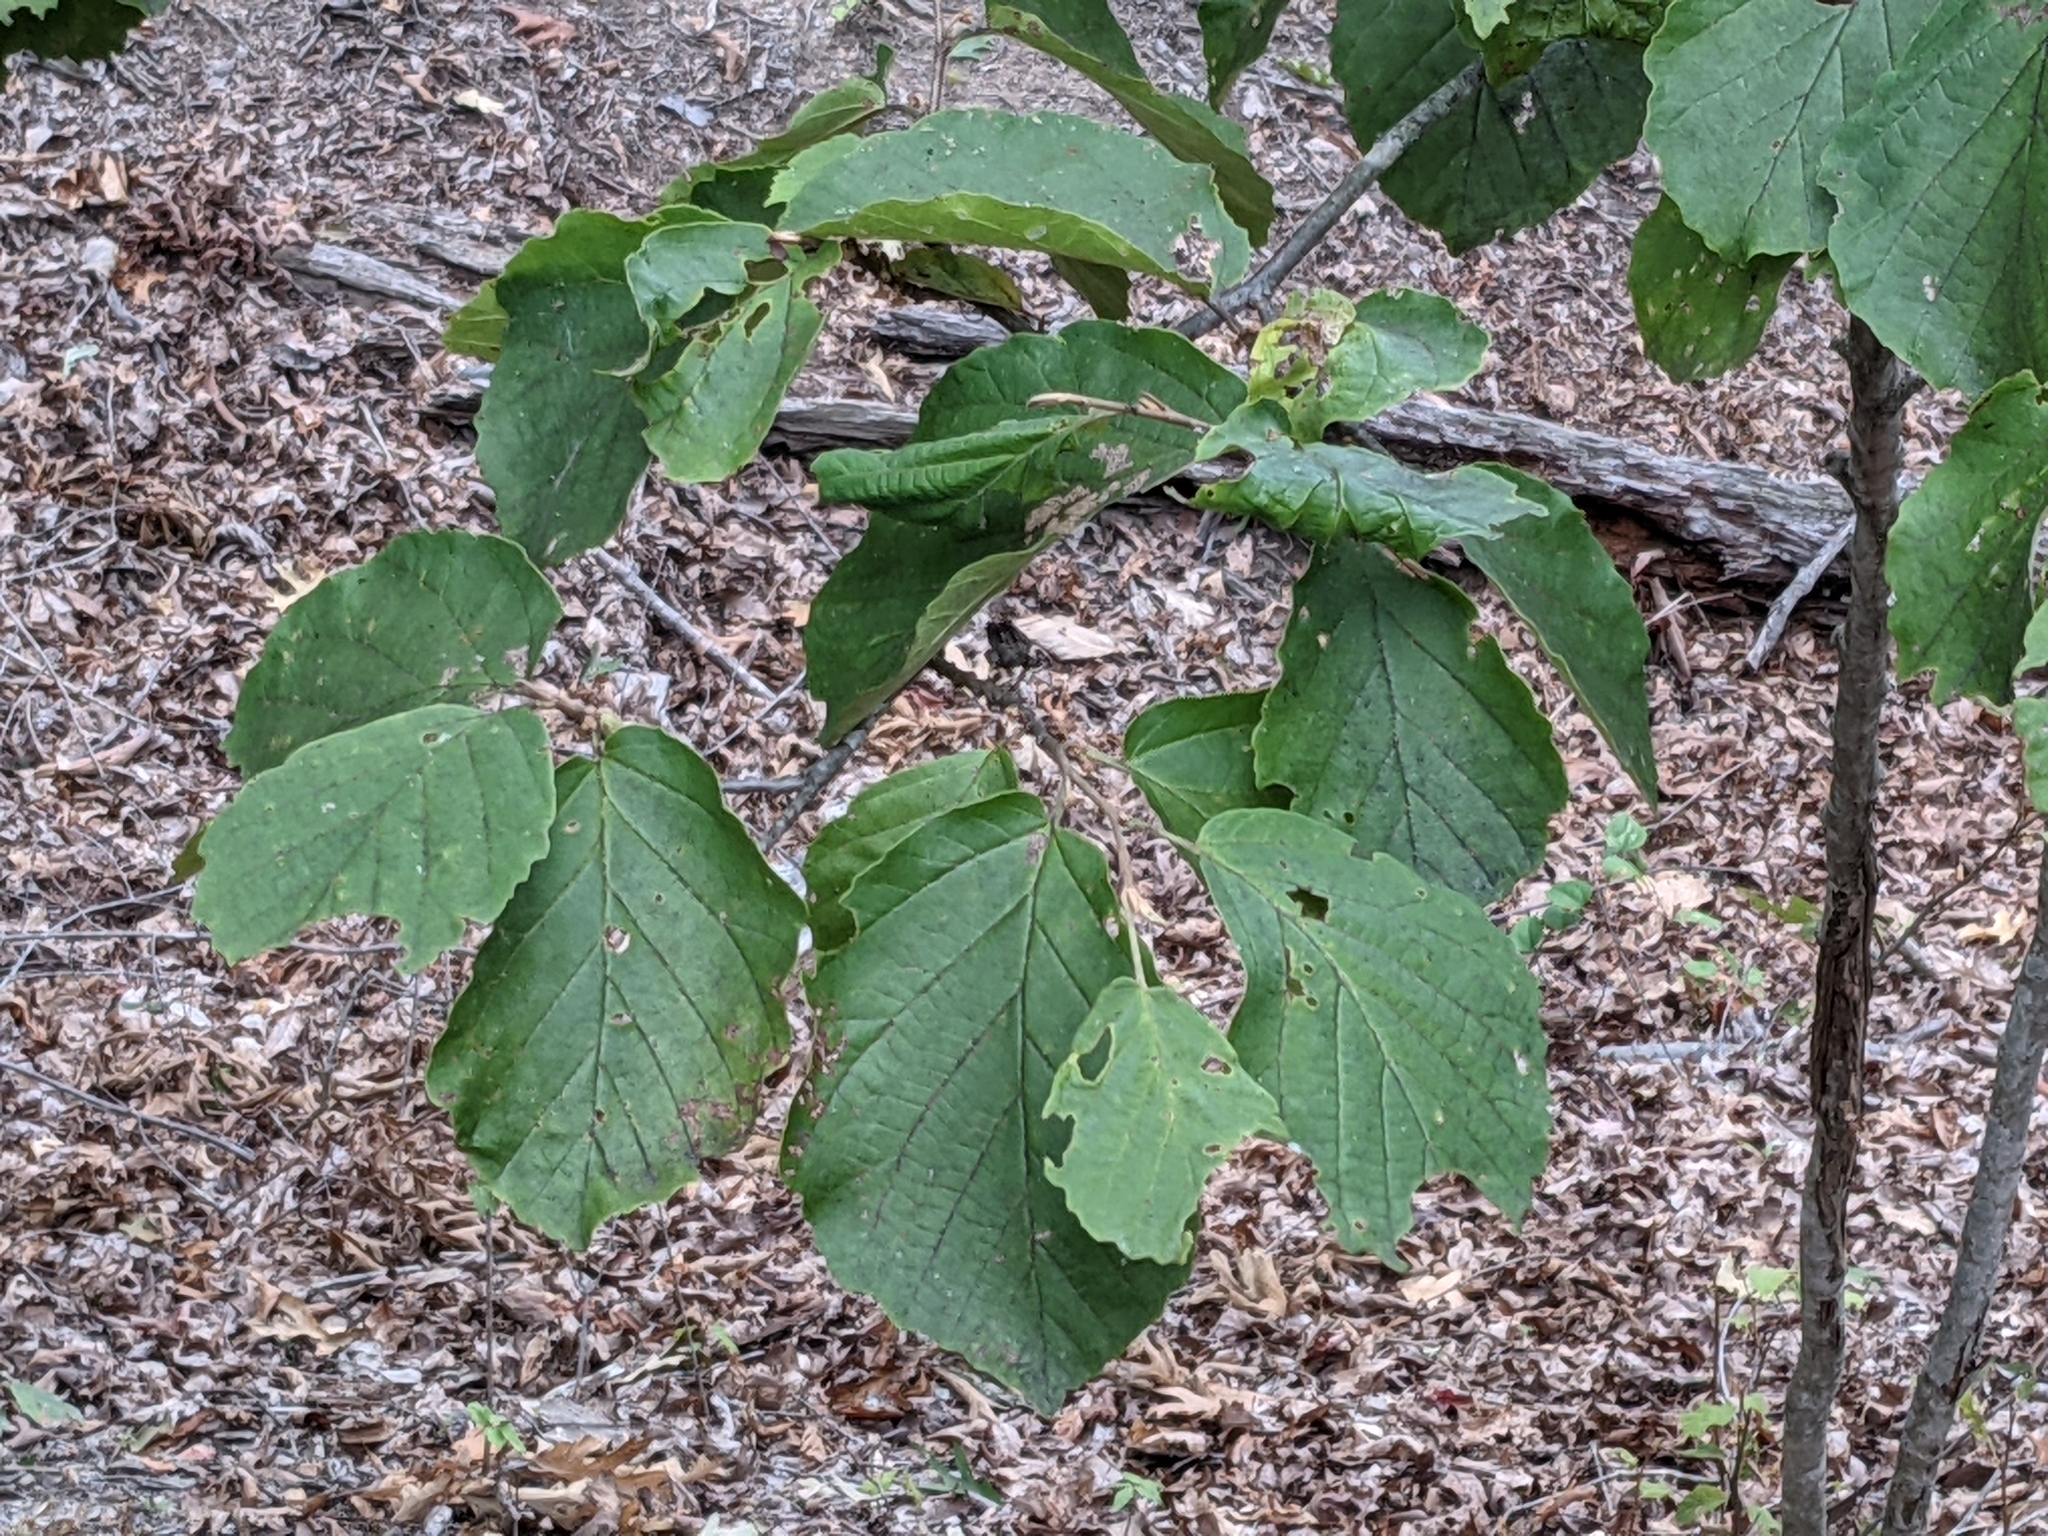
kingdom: Plantae
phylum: Tracheophyta
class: Magnoliopsida
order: Saxifragales
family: Hamamelidaceae
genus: Hamamelis
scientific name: Hamamelis virginiana
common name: Witch-hazel
